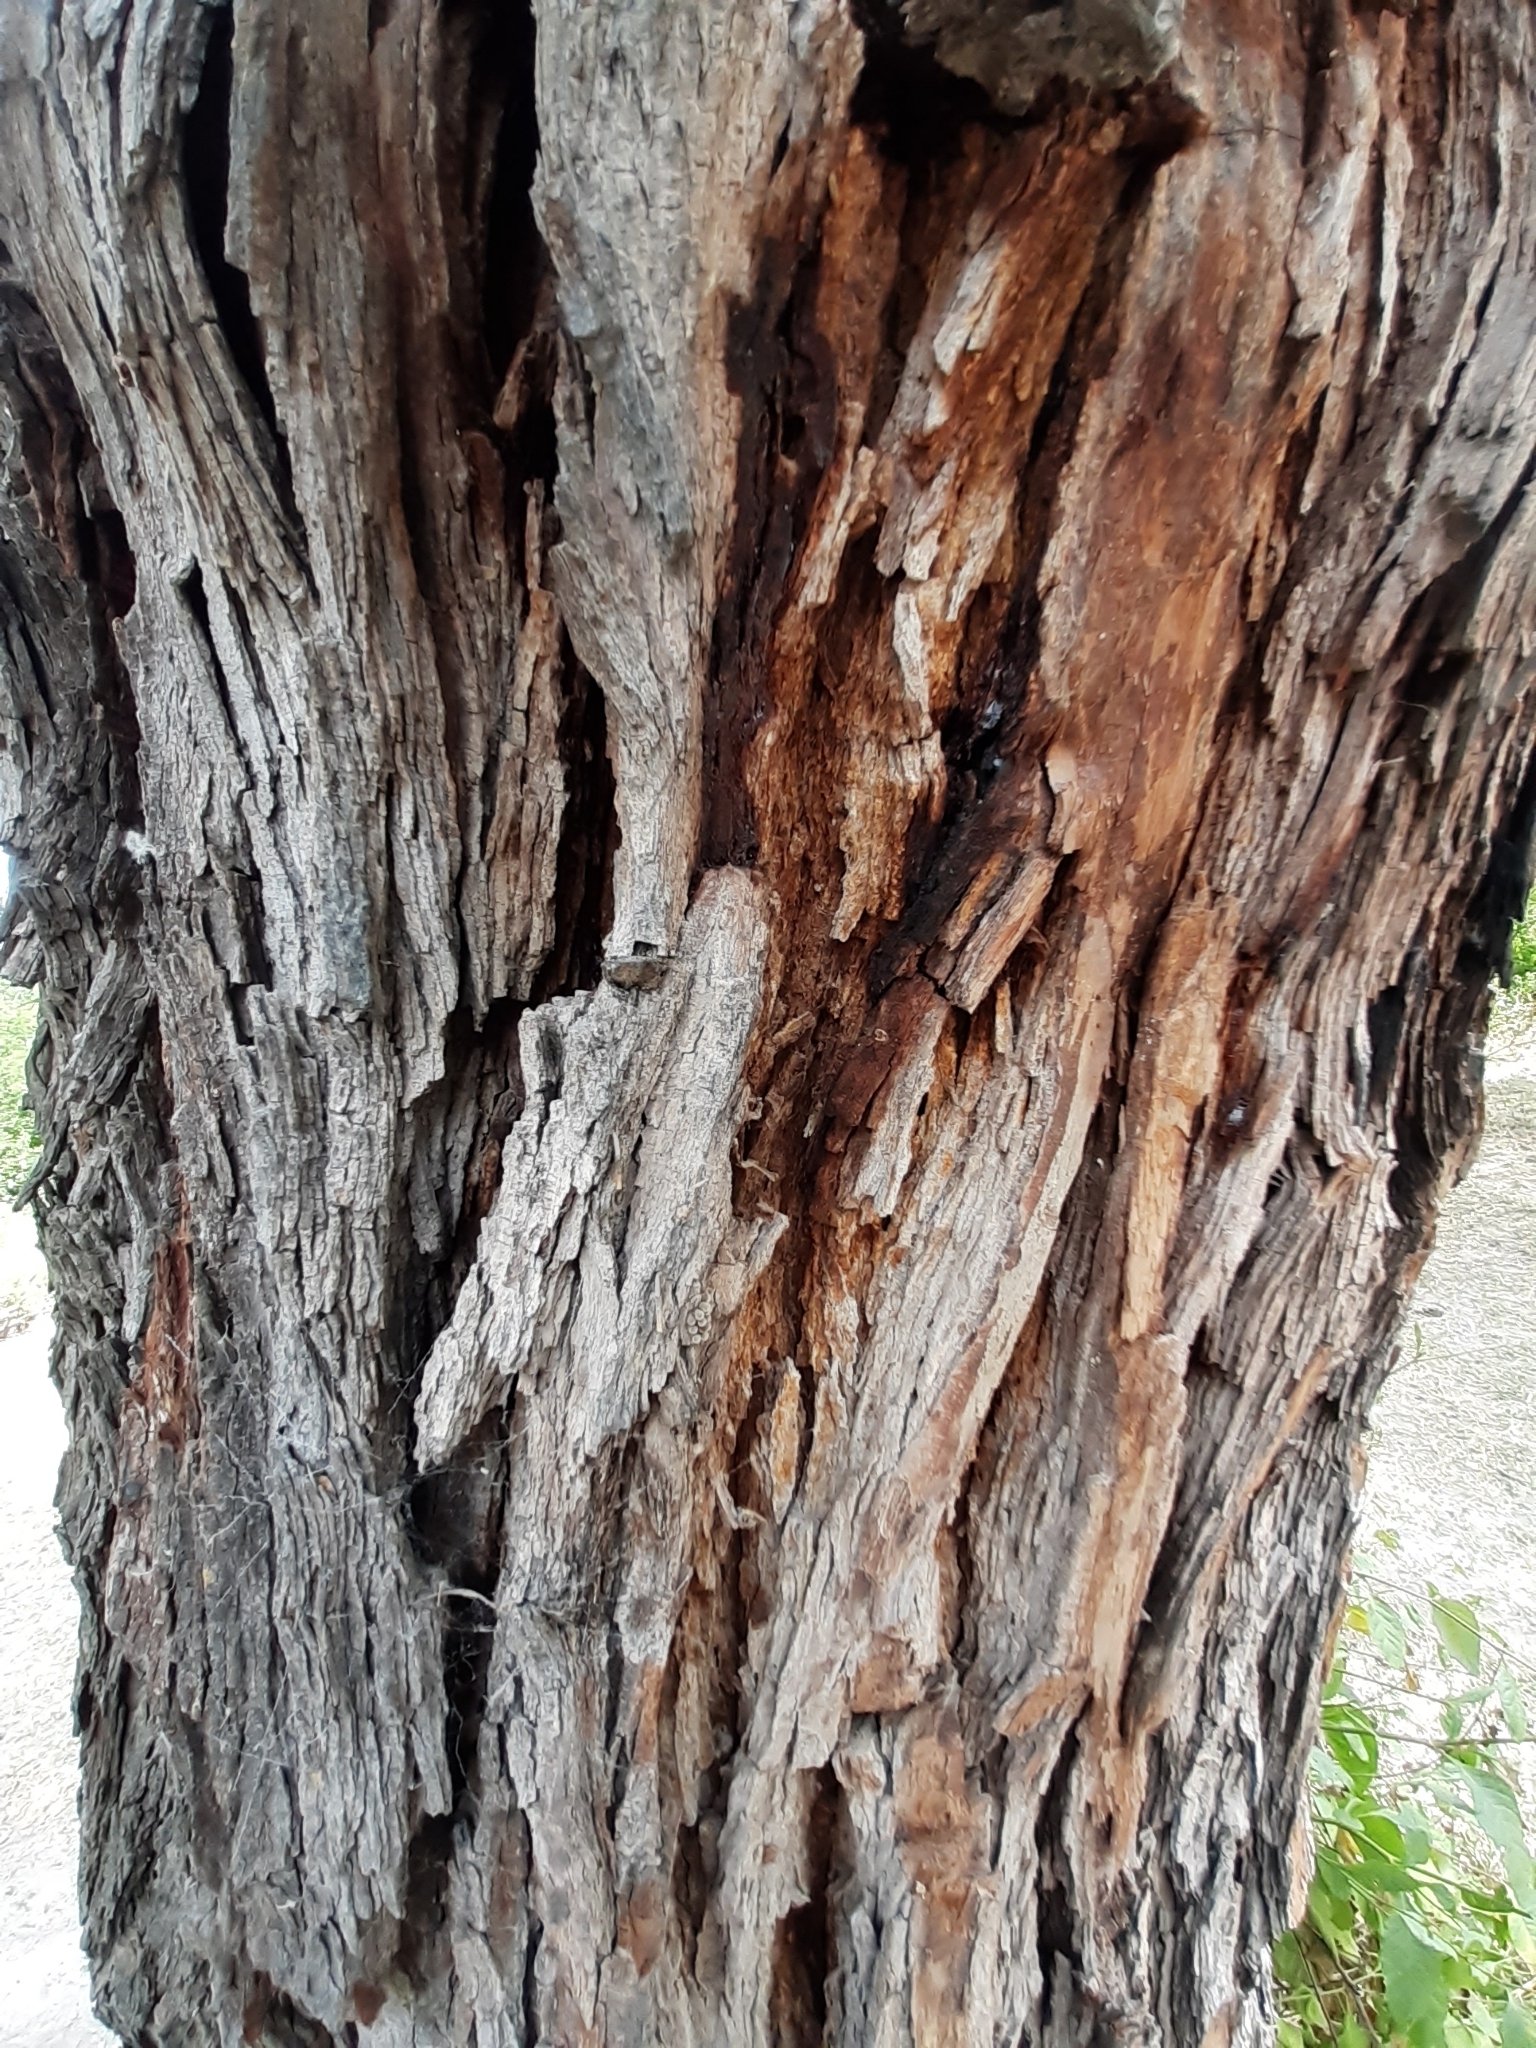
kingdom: Plantae
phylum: Tracheophyta
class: Magnoliopsida
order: Fabales
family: Fabaceae
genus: Prosopis
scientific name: Prosopis laevigata
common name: Smooth mesquite
